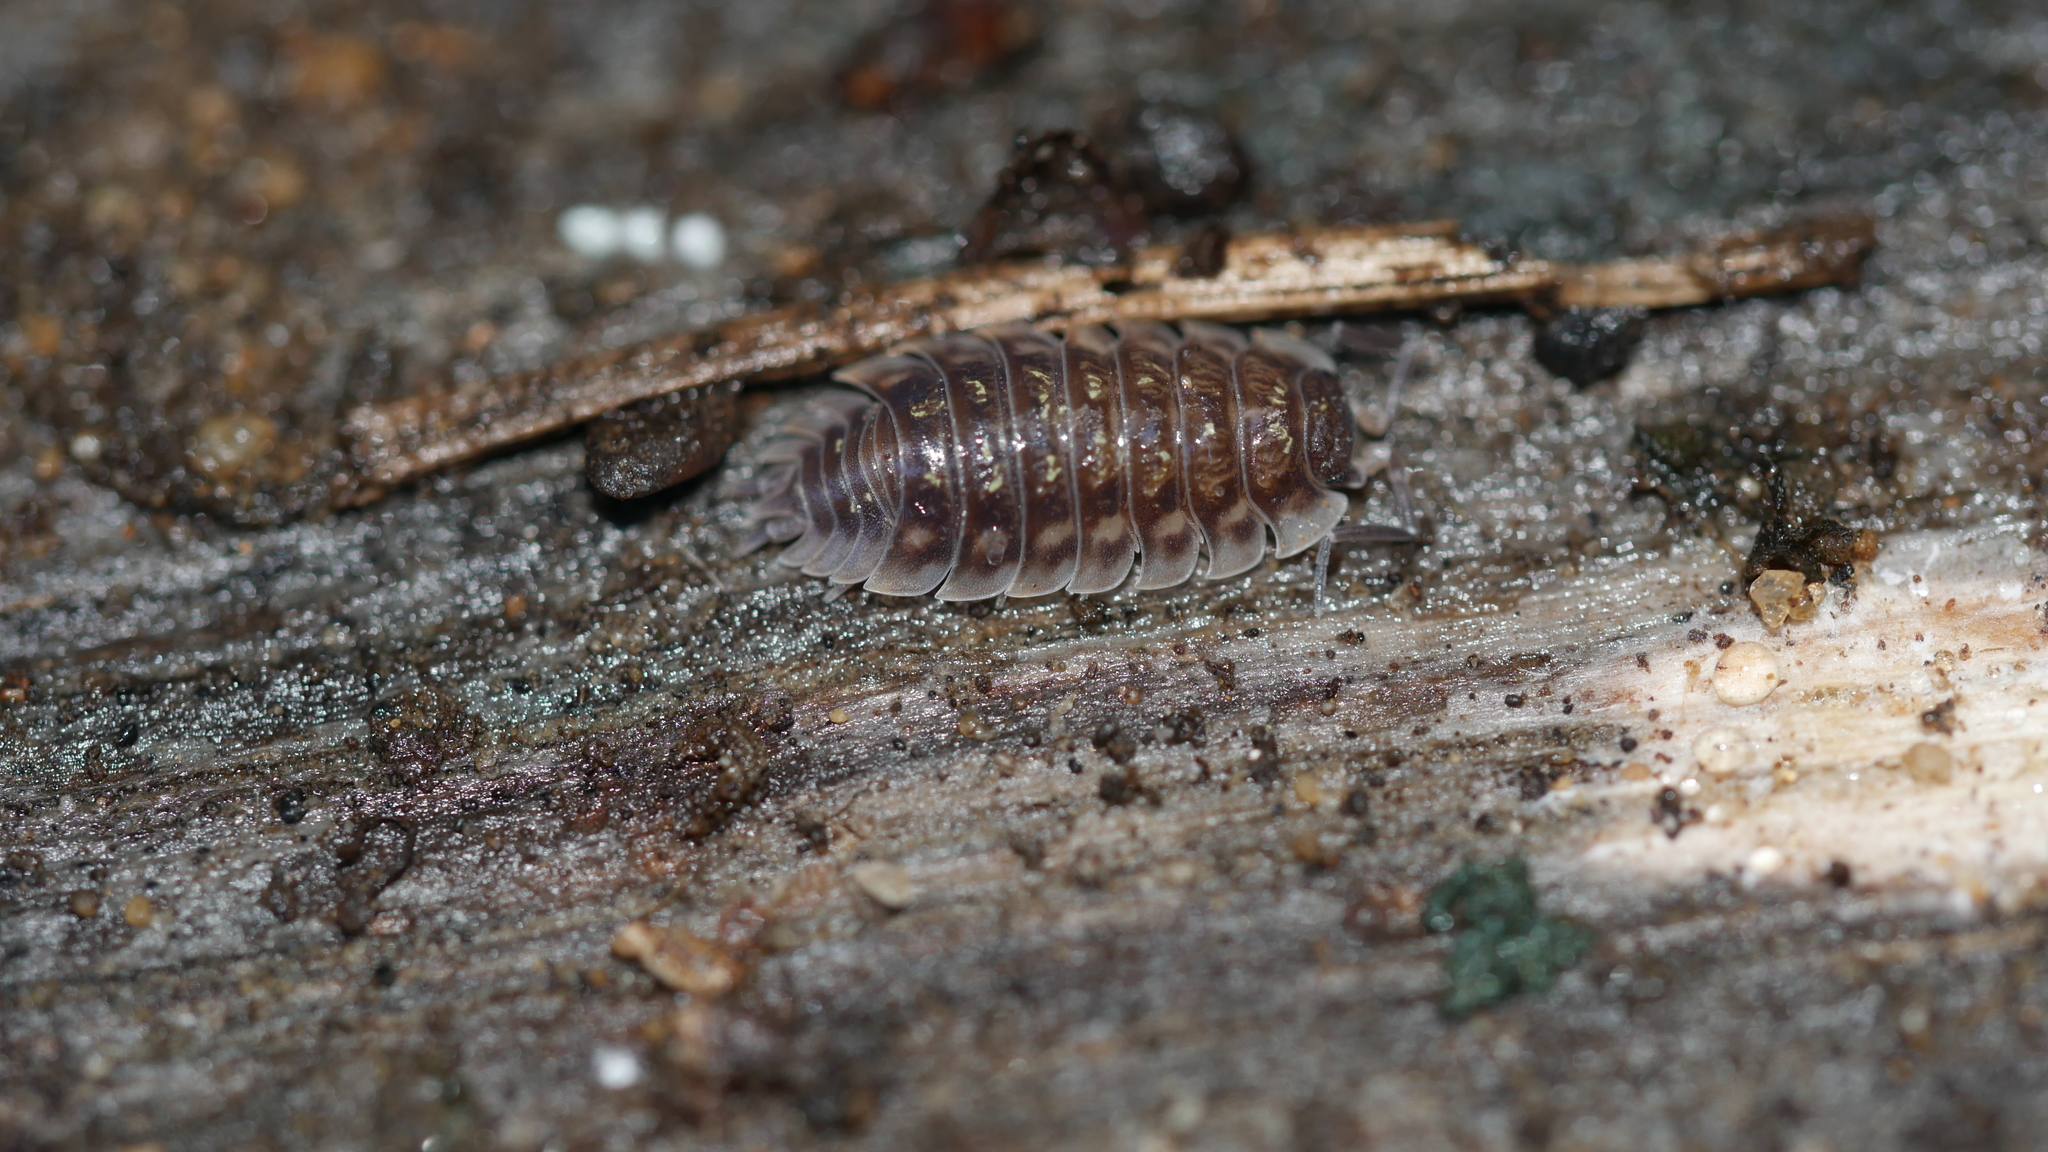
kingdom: Animalia
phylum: Arthropoda
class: Malacostraca
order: Isopoda
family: Oniscidae
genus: Oniscus
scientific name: Oniscus asellus
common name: Common shiny woodlouse
